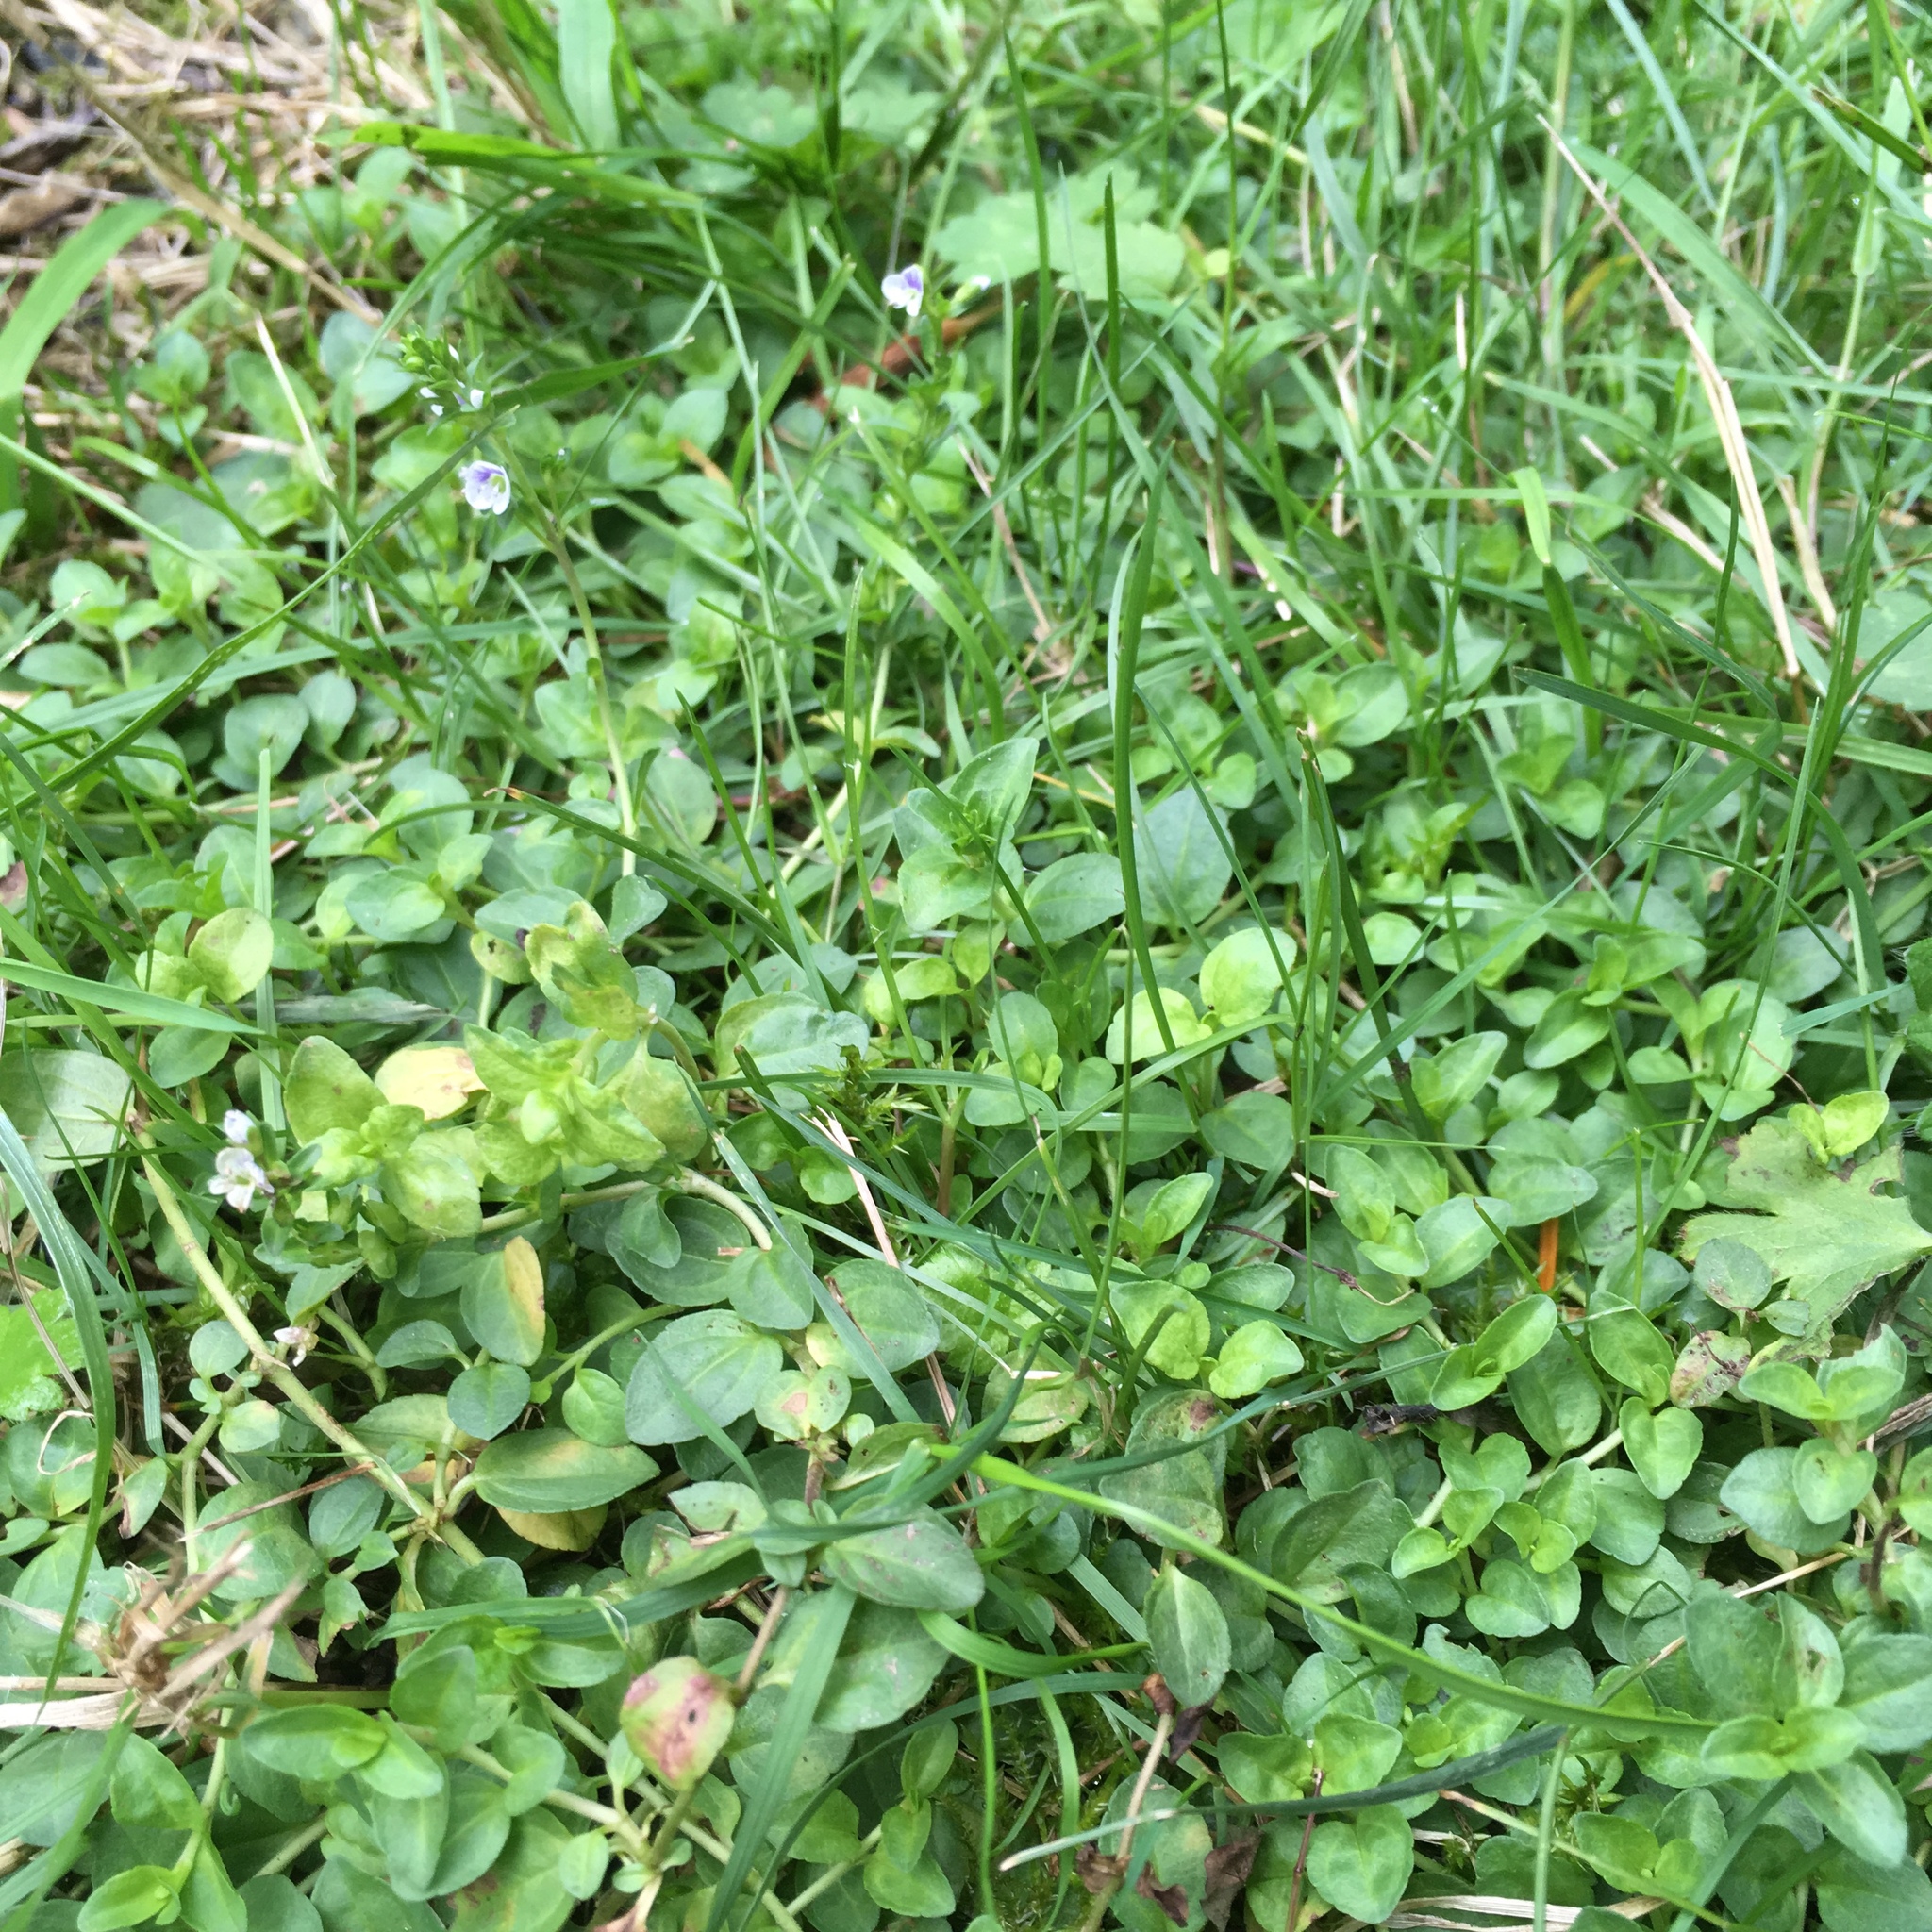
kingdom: Plantae
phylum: Tracheophyta
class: Magnoliopsida
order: Lamiales
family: Plantaginaceae
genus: Veronica
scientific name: Veronica serpyllifolia
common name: Thyme-leaved speedwell
